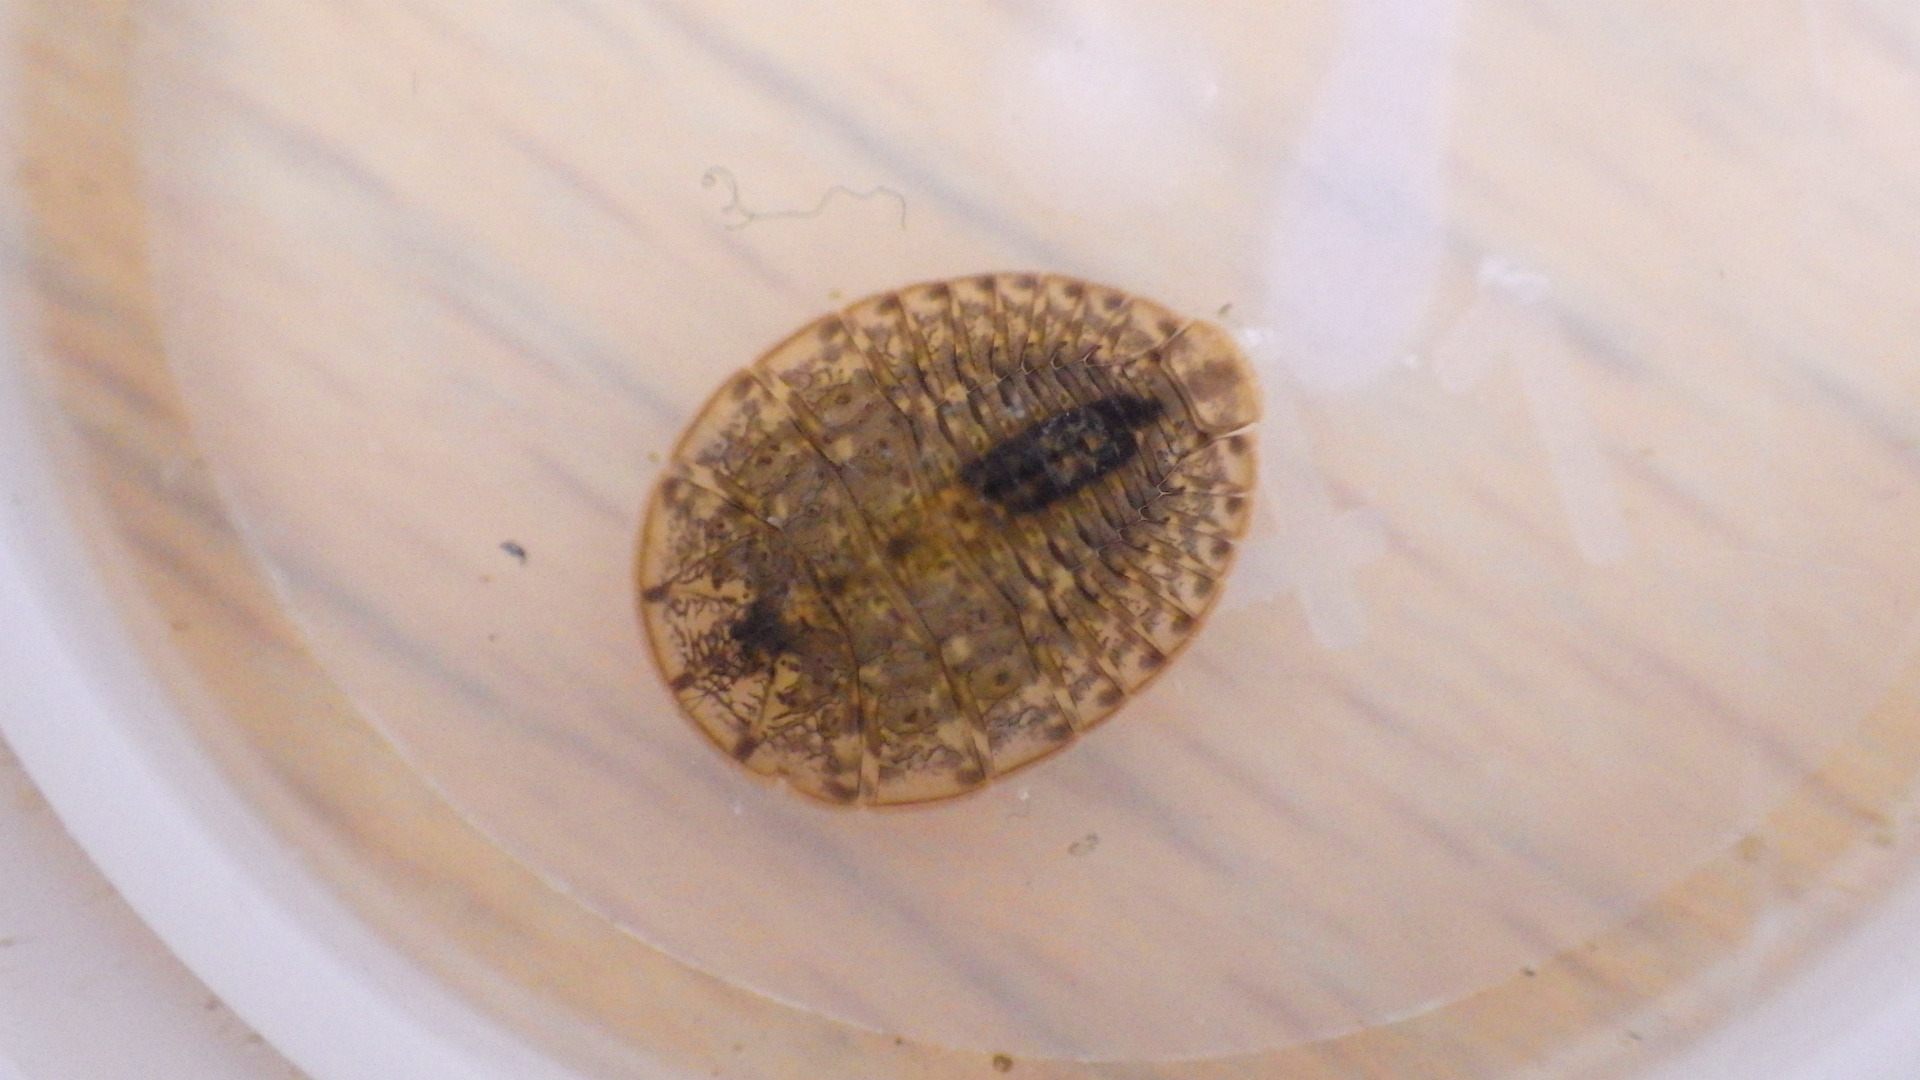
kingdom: Animalia
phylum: Arthropoda
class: Insecta
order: Coleoptera
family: Psephenidae
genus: Psephenus
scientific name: Psephenus herricki
